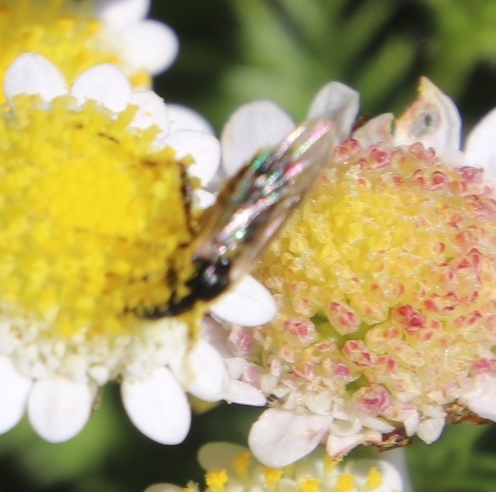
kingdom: Plantae
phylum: Tracheophyta
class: Magnoliopsida
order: Asterales
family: Asteraceae
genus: Cotula
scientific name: Cotula turbinata
